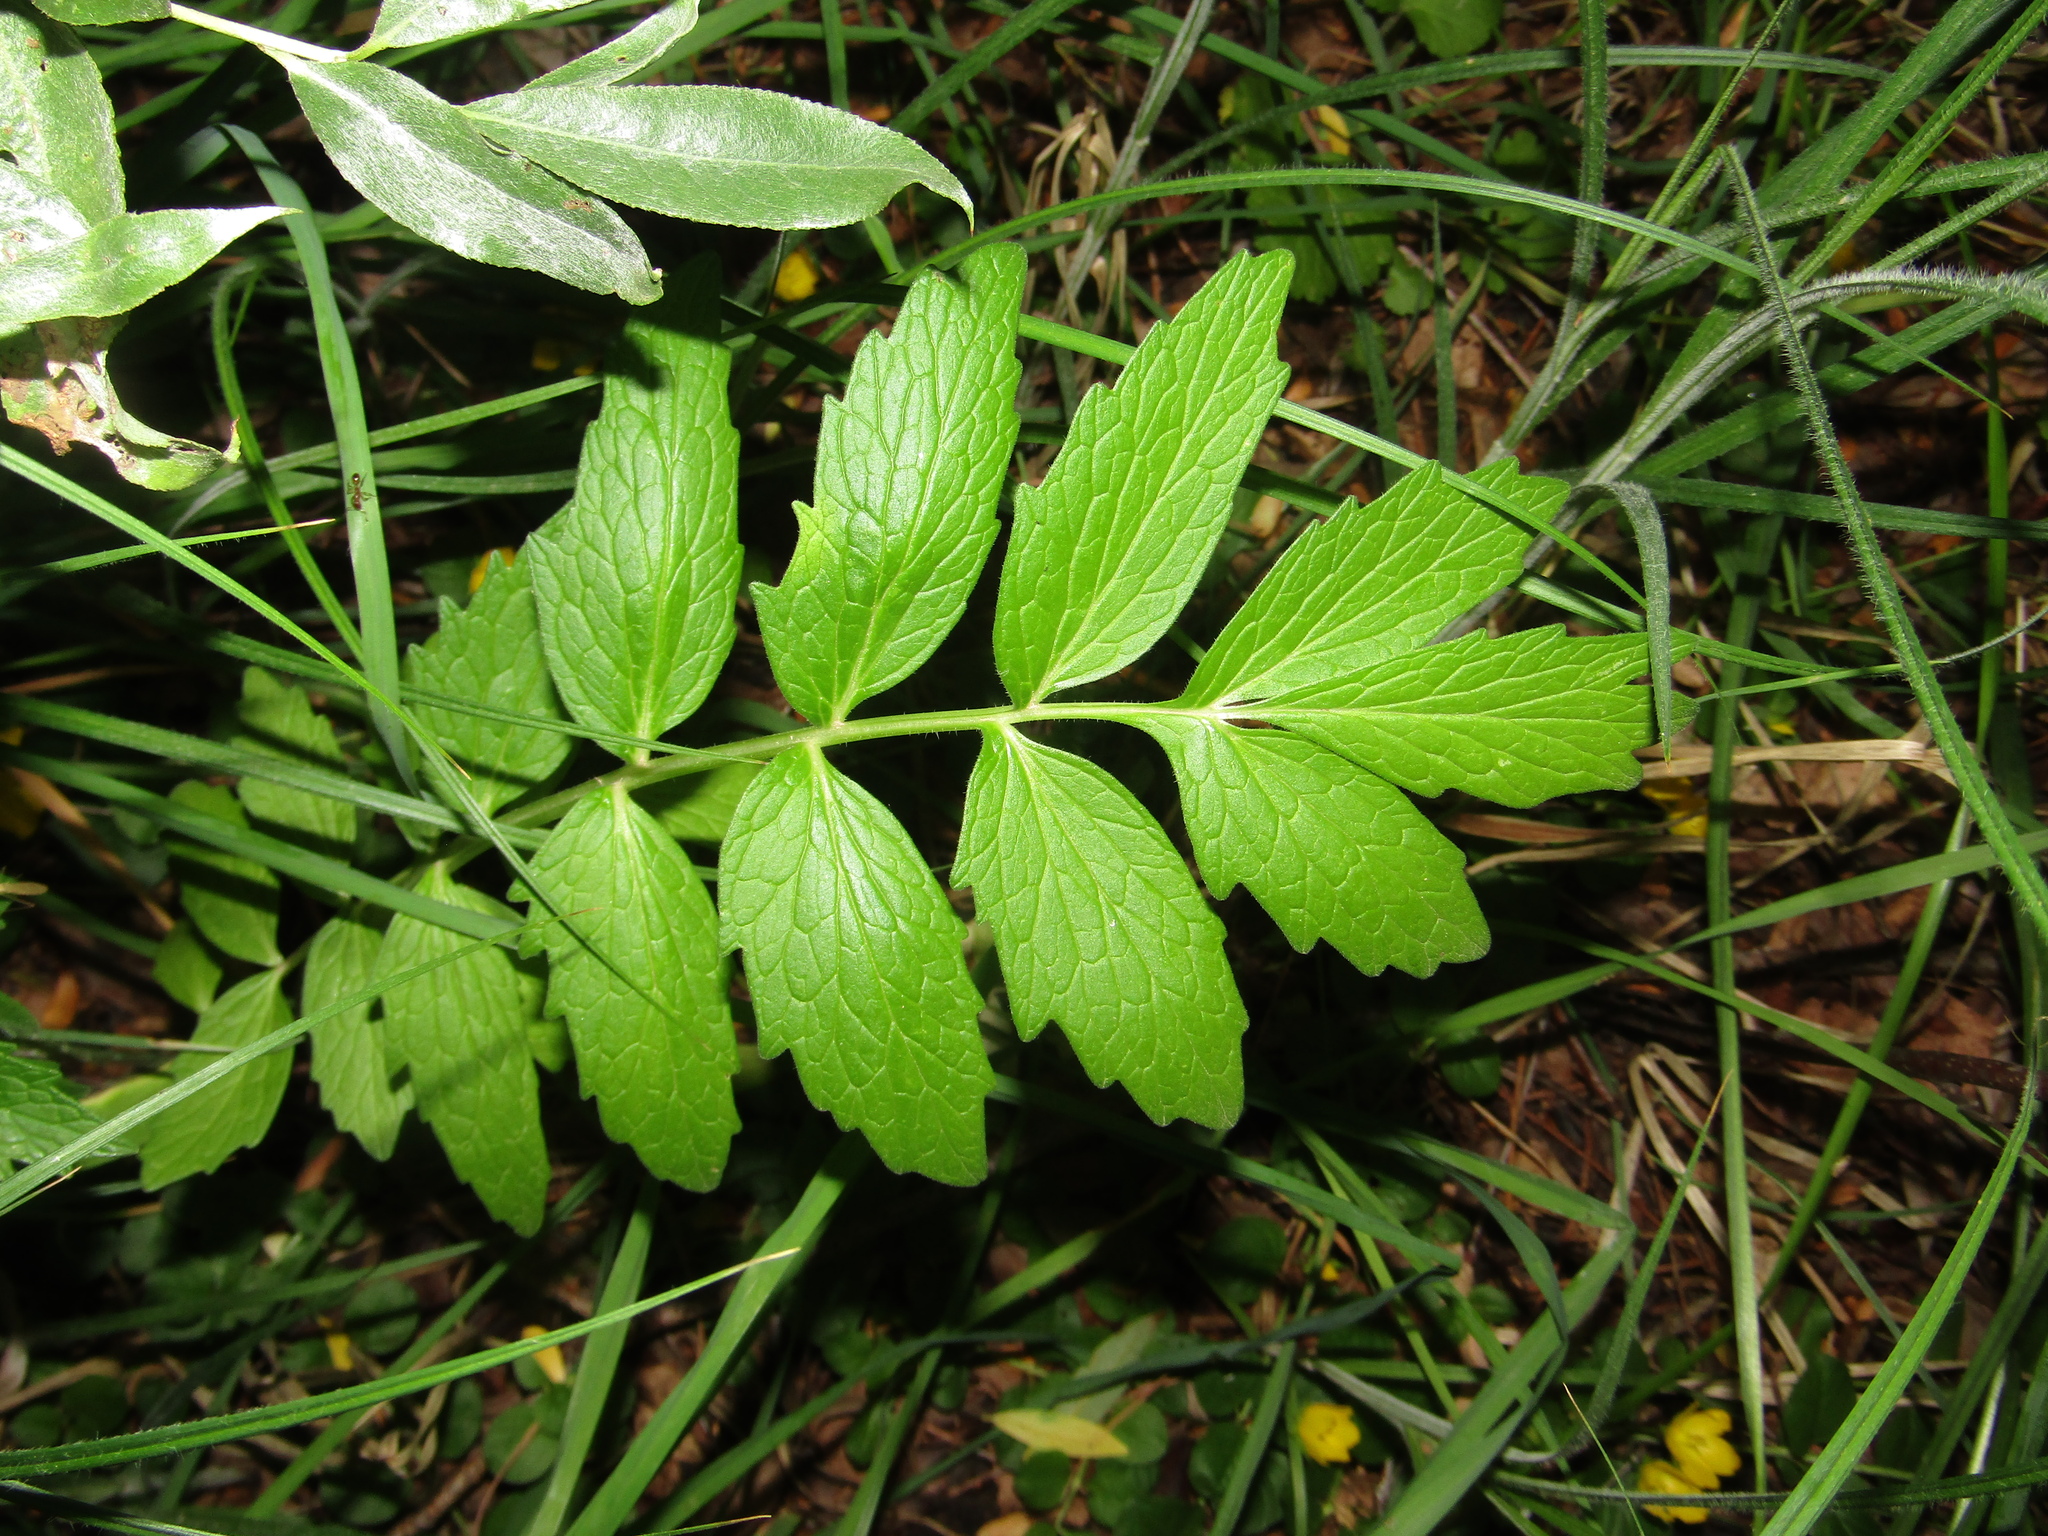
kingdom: Plantae
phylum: Tracheophyta
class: Magnoliopsida
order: Dipsacales
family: Caprifoliaceae
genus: Valeriana
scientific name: Valeriana officinalis
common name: Common valerian
